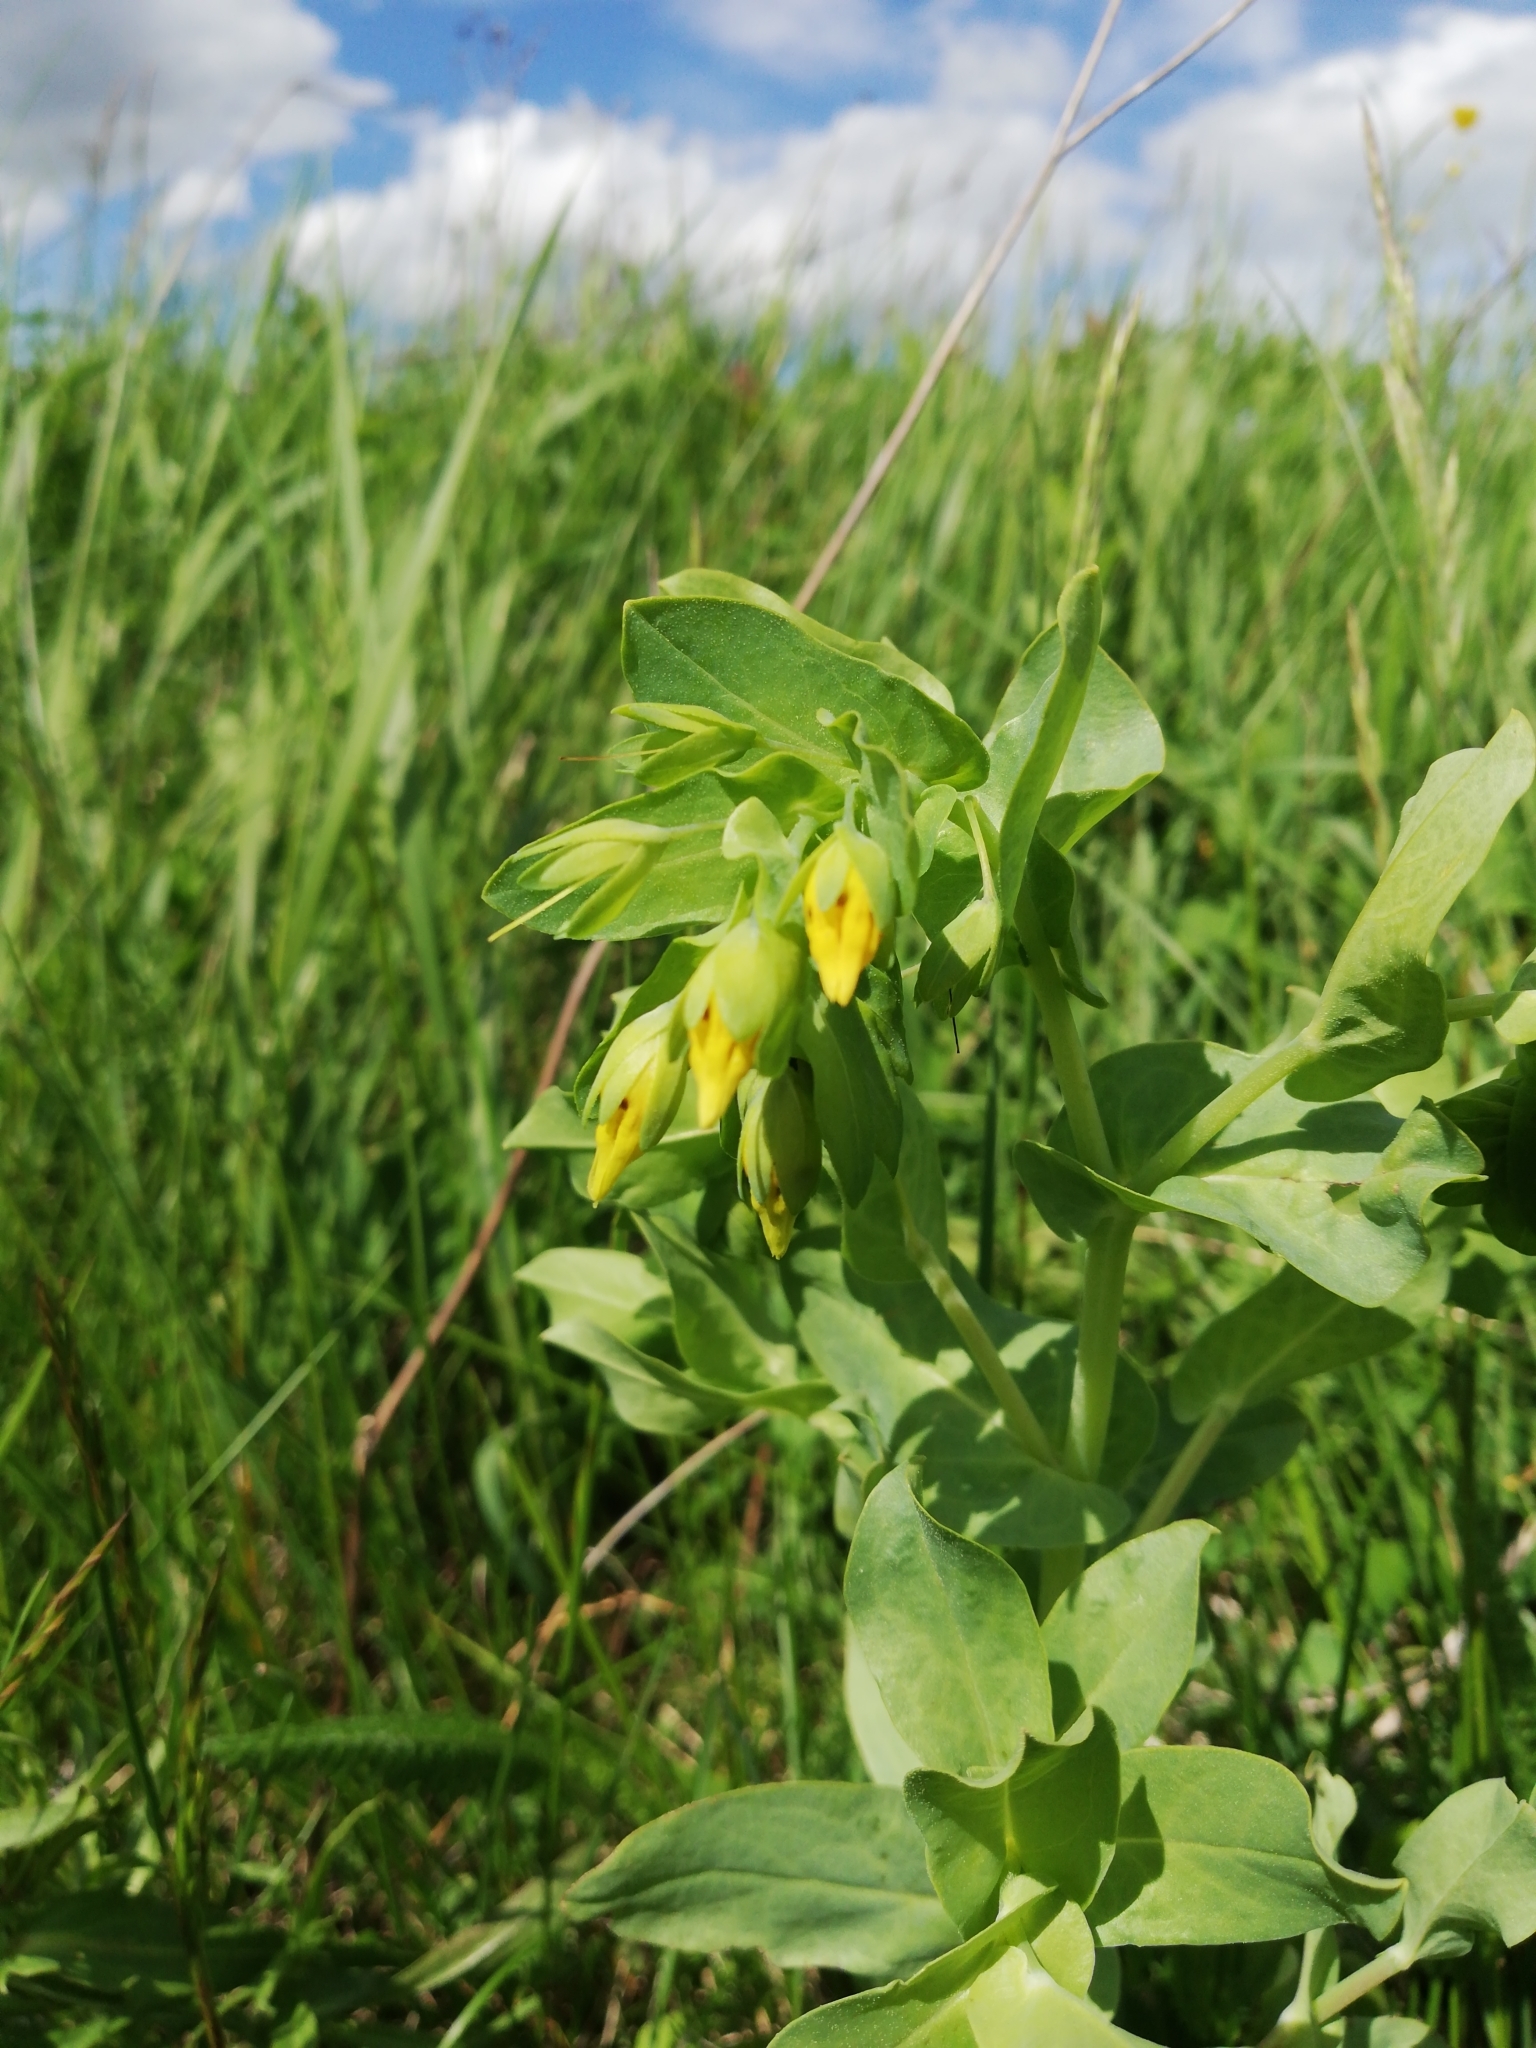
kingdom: Plantae
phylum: Tracheophyta
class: Magnoliopsida
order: Boraginales
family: Boraginaceae
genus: Cerinthe
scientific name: Cerinthe minor
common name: Lesser honeywort
